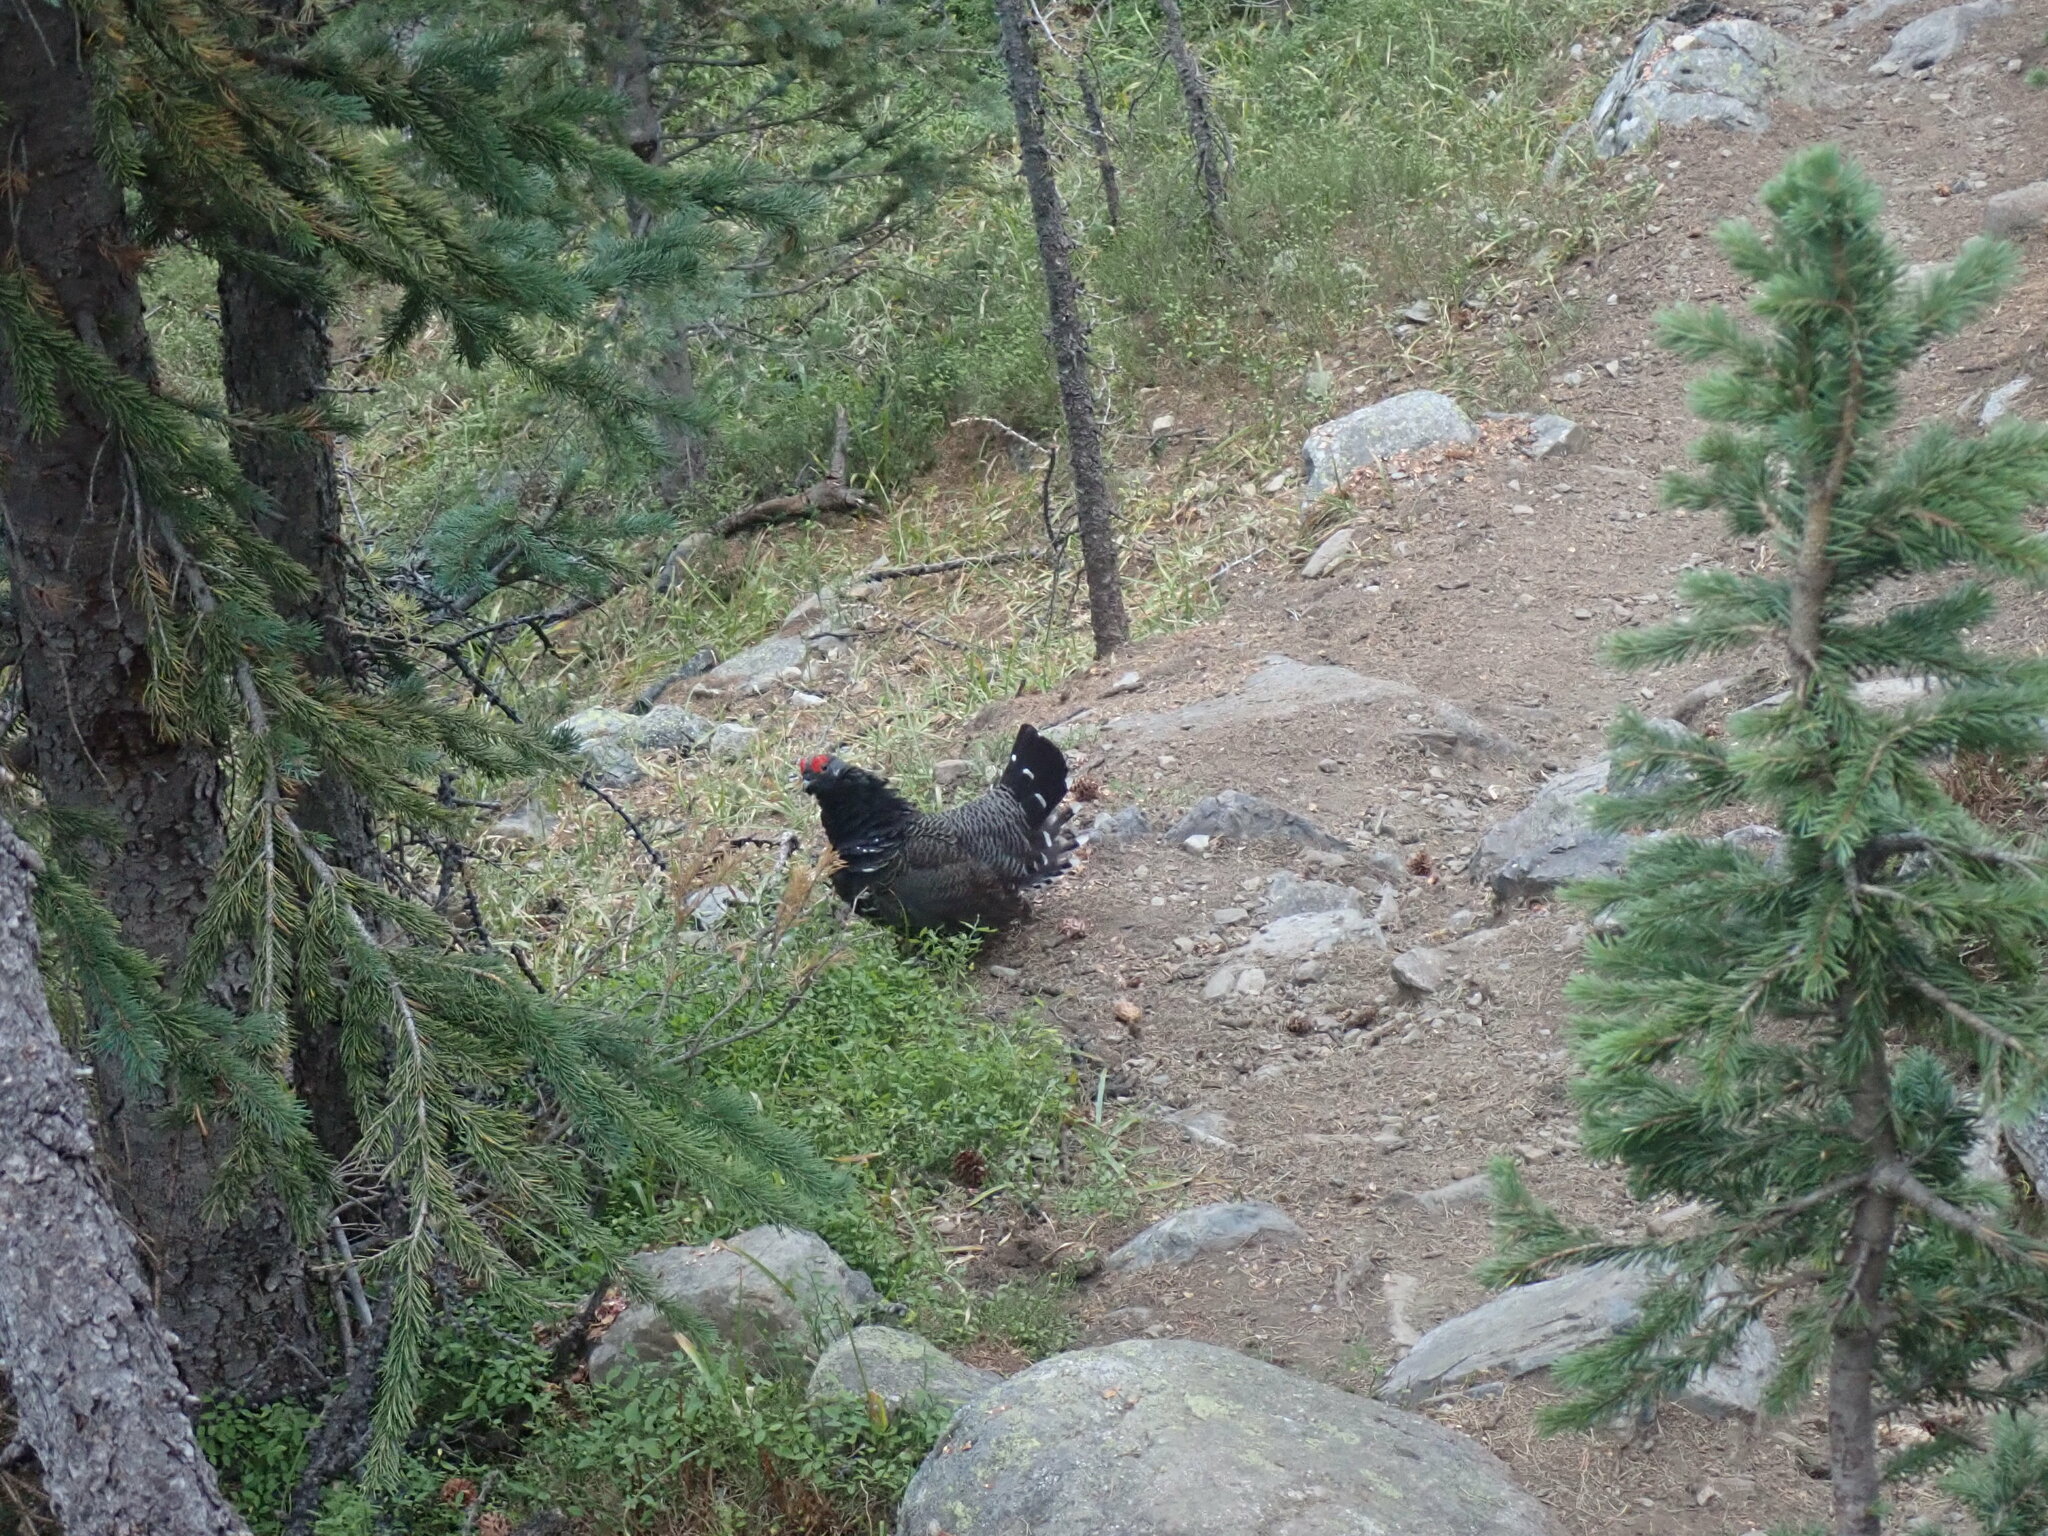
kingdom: Animalia
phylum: Chordata
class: Aves
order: Galliformes
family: Phasianidae
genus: Canachites
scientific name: Canachites canadensis
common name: Spruce grouse
